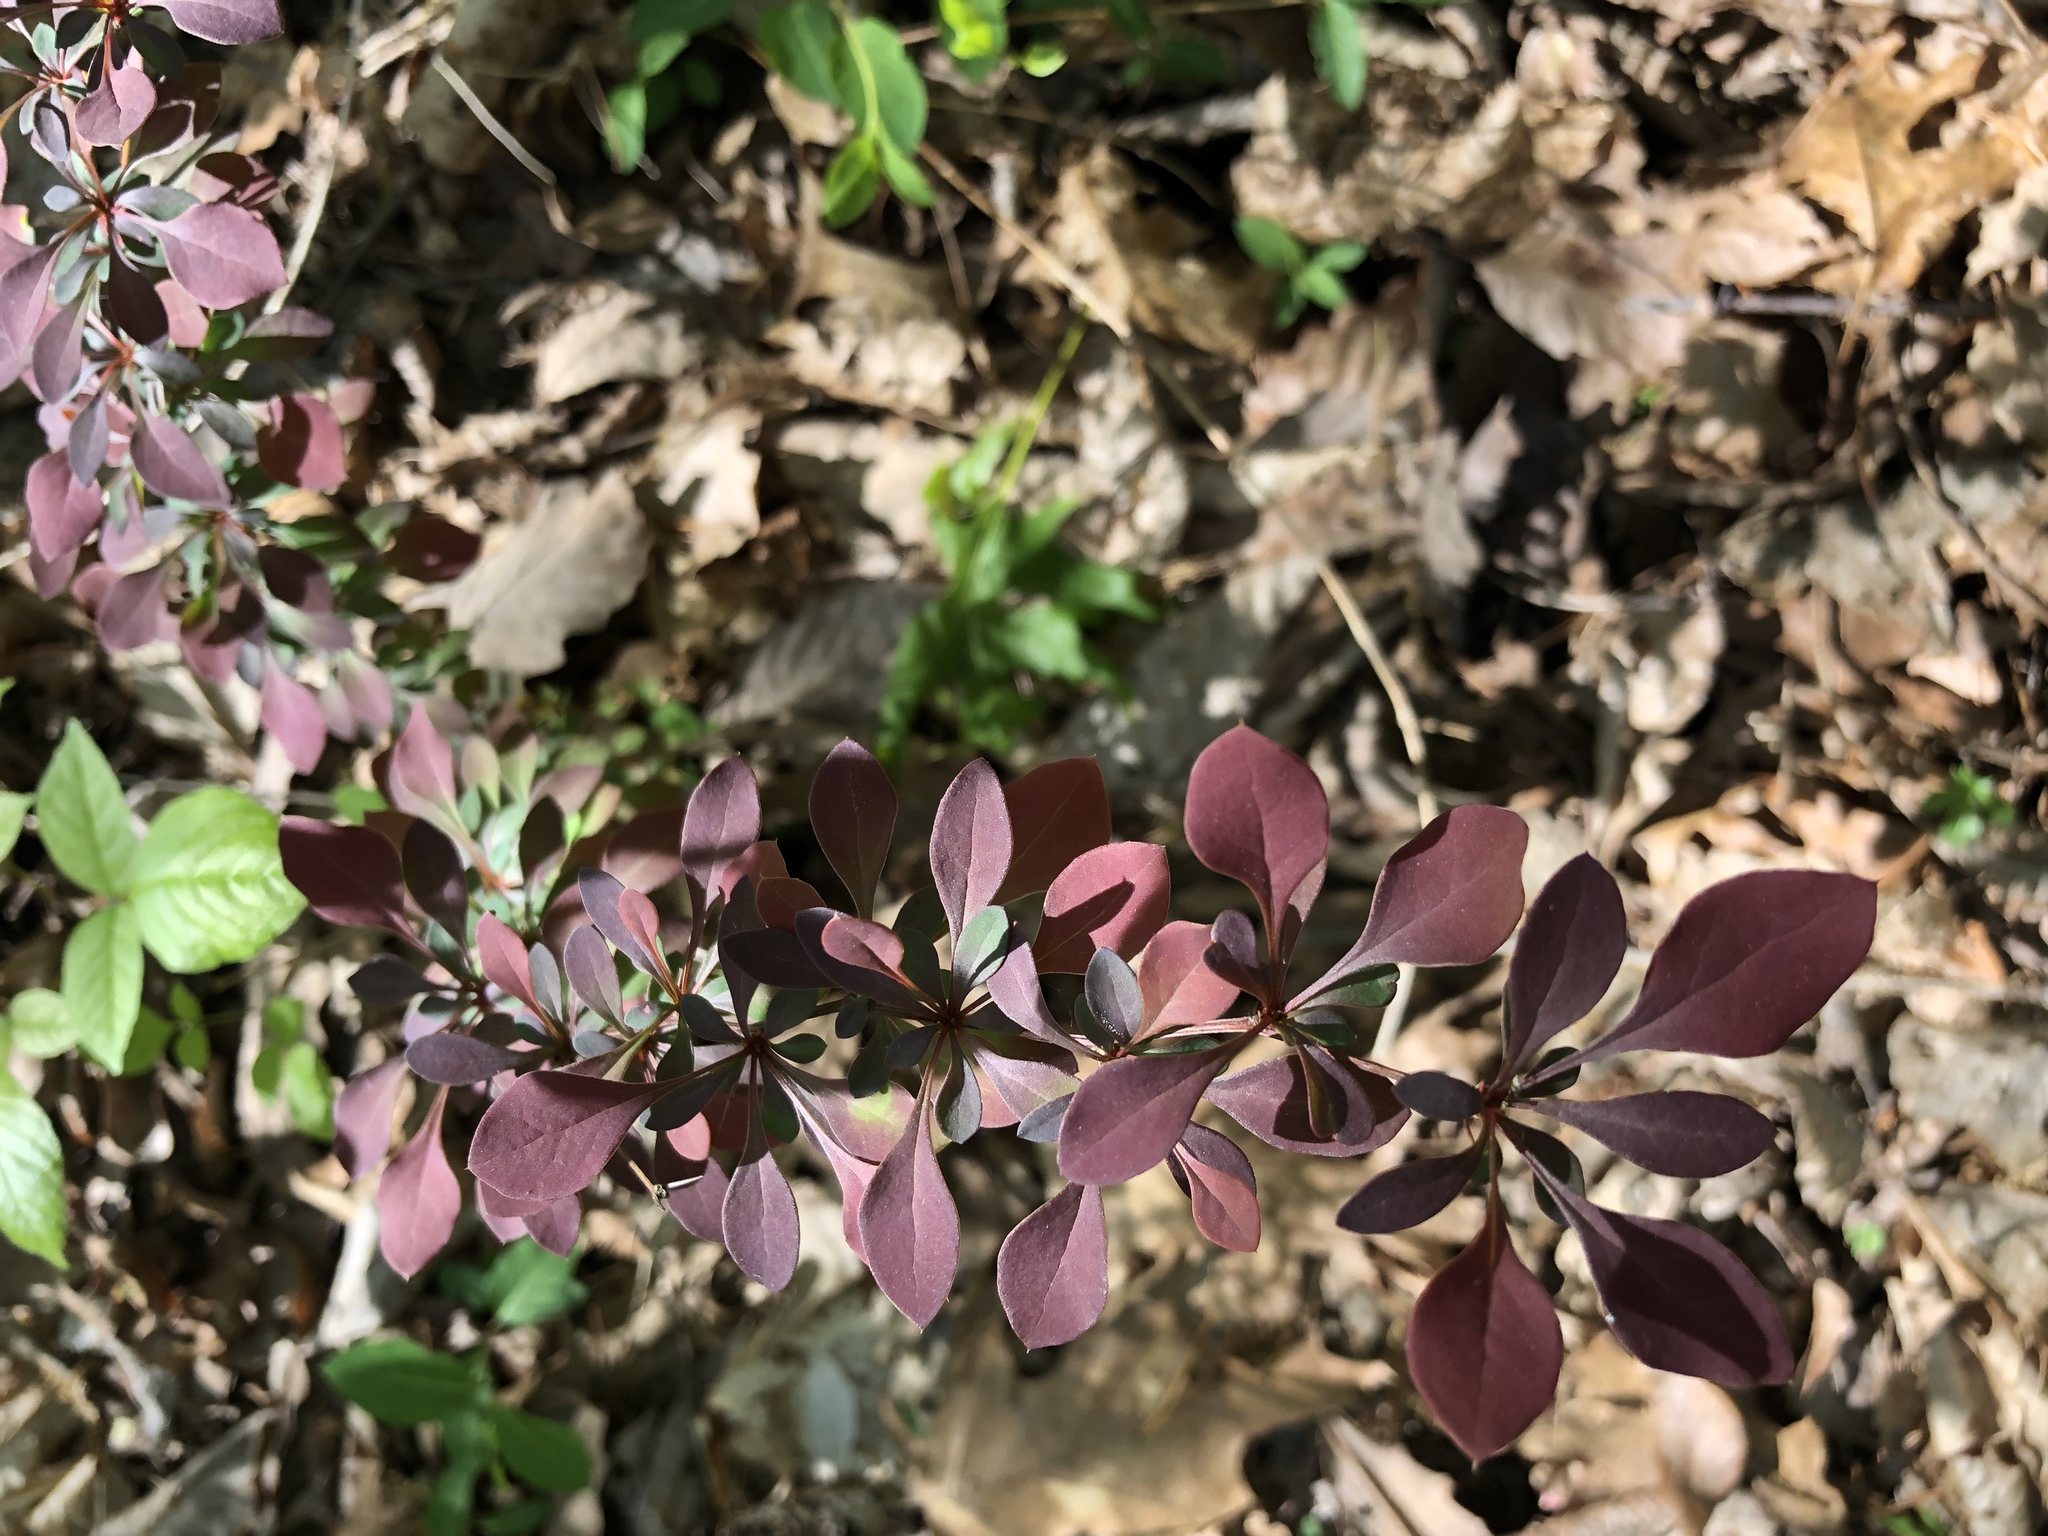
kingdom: Plantae
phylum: Tracheophyta
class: Magnoliopsida
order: Ranunculales
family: Berberidaceae
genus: Berberis
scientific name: Berberis thunbergii
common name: Japanese barberry
